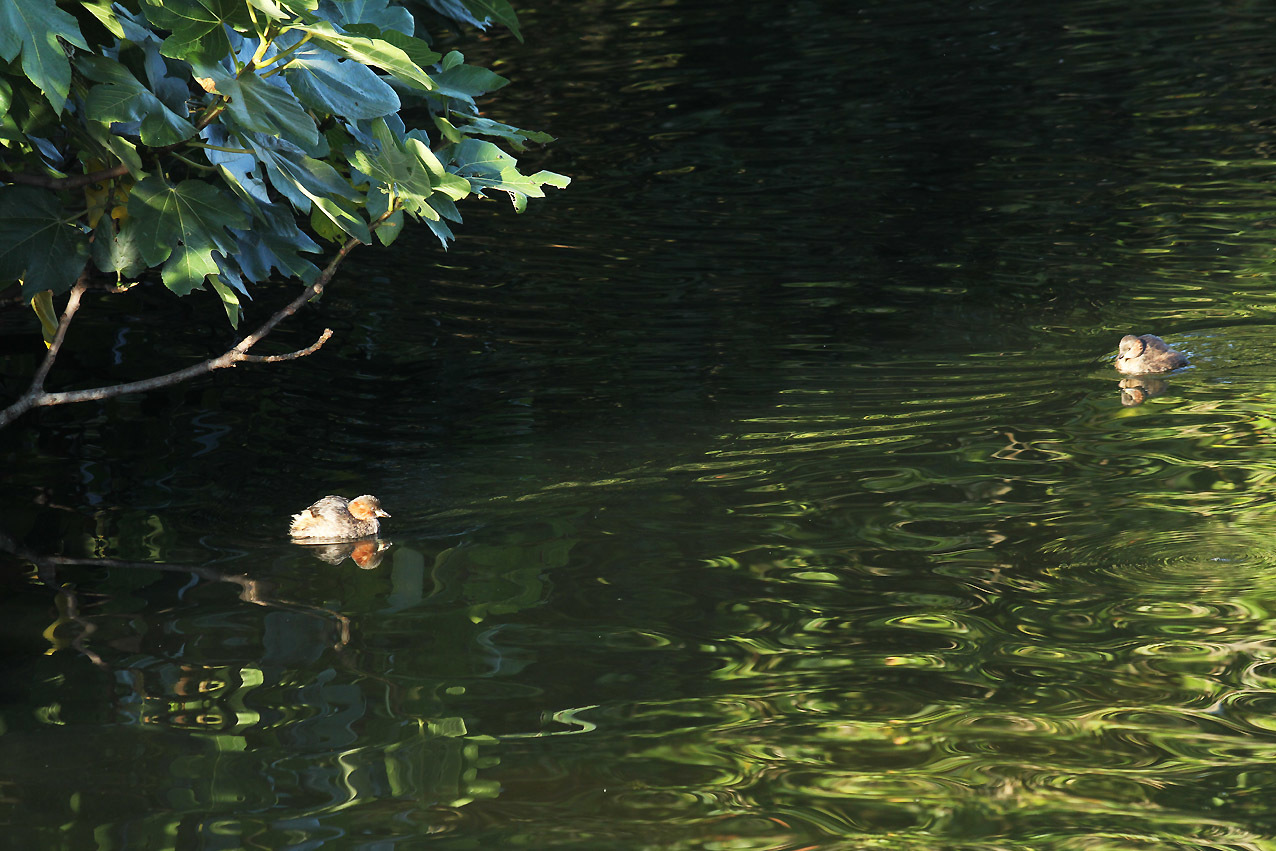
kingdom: Animalia
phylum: Chordata
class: Aves
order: Podicipediformes
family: Podicipedidae
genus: Tachybaptus
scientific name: Tachybaptus ruficollis
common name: Little grebe
